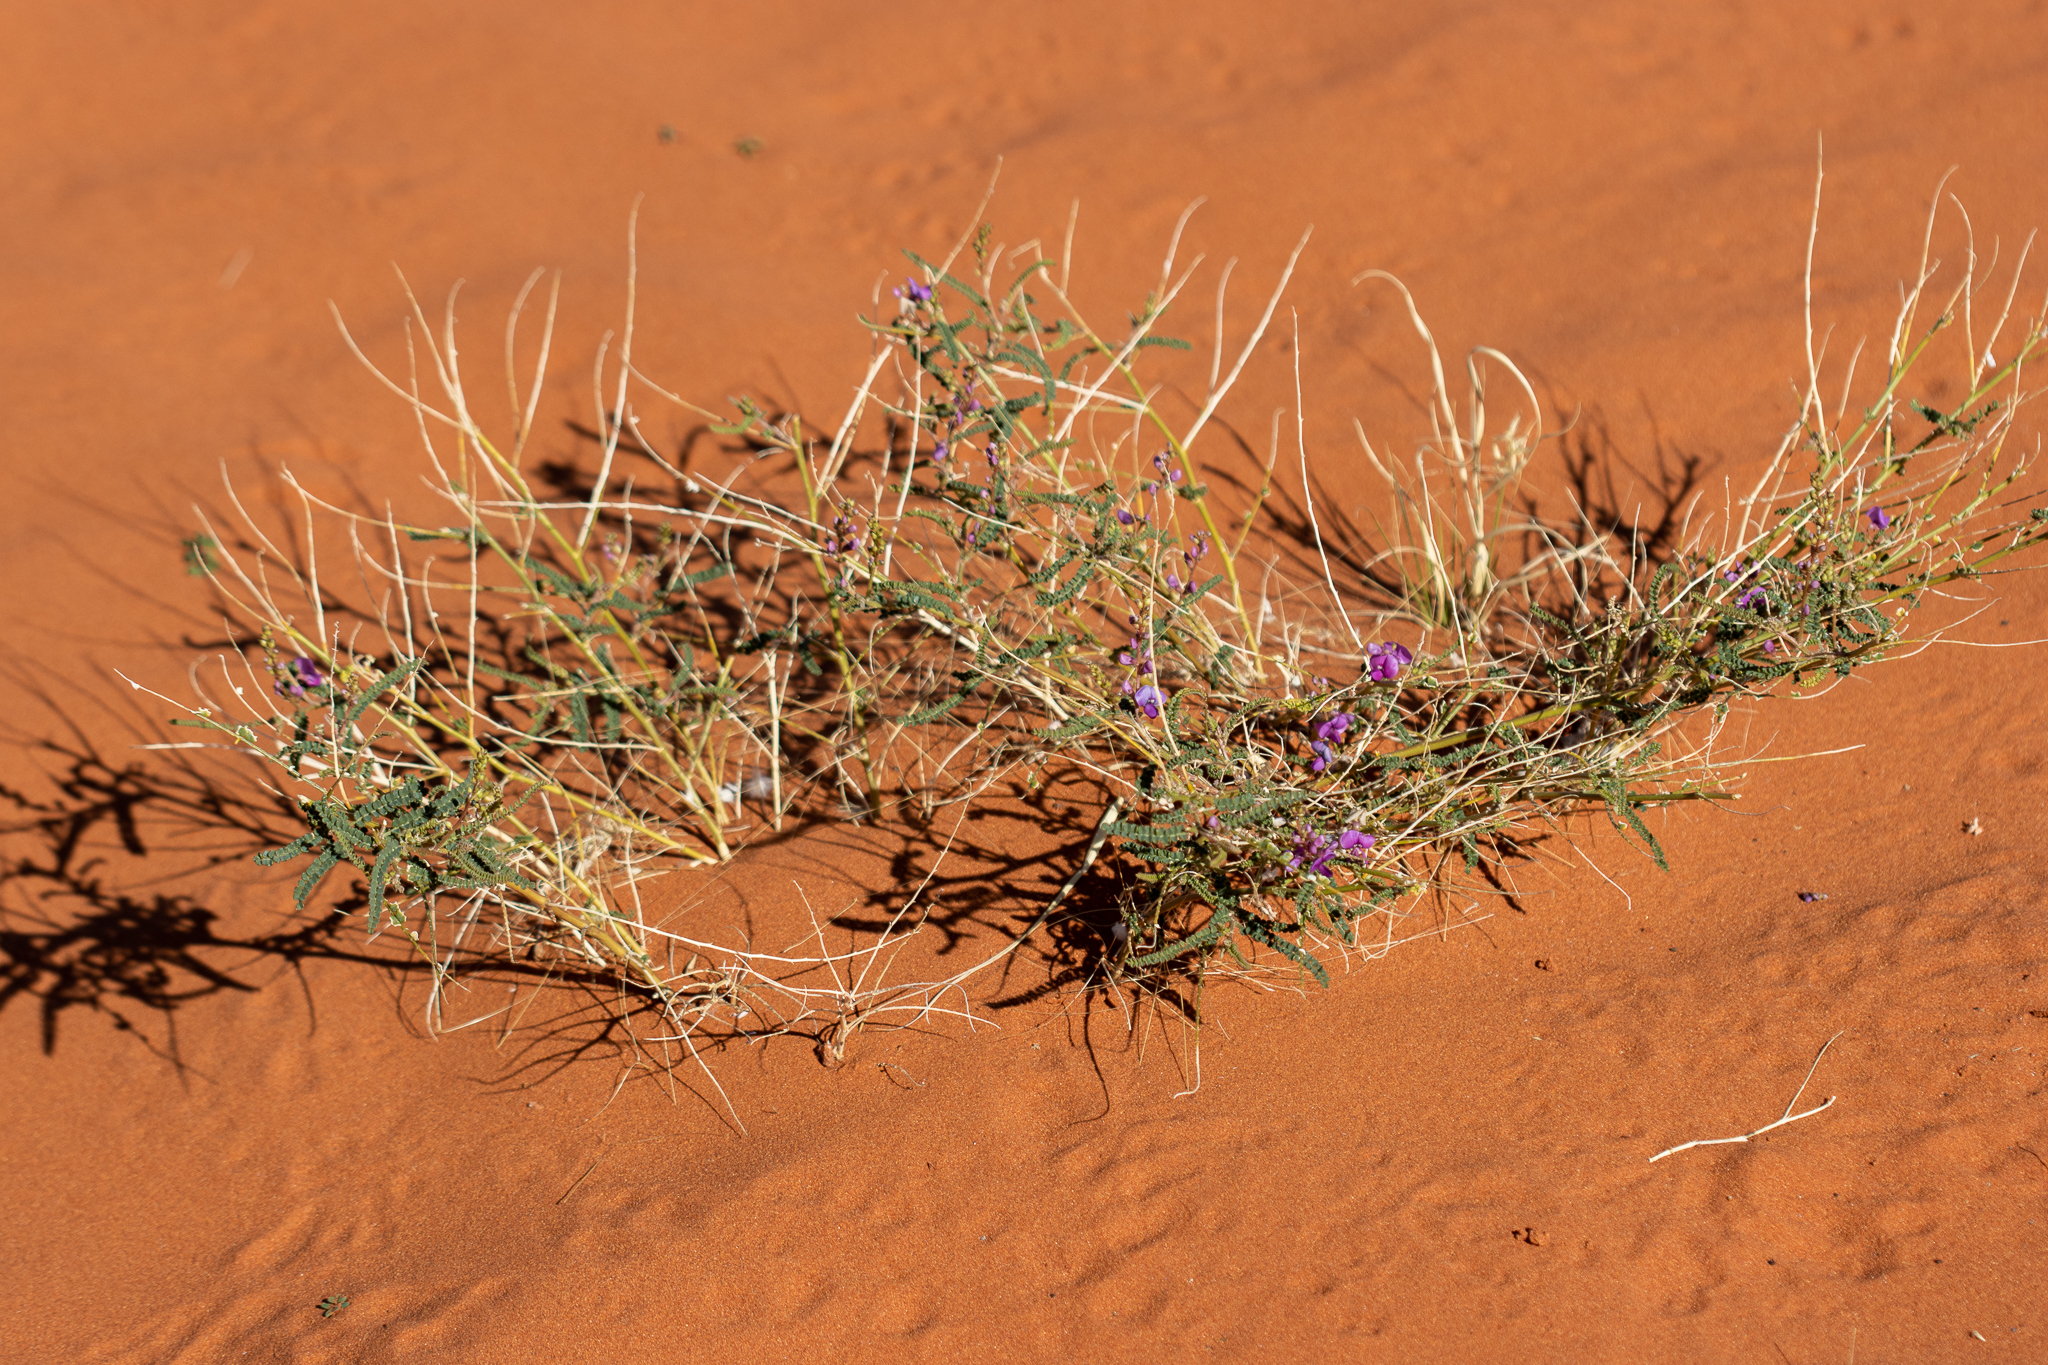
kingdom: Plantae
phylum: Tracheophyta
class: Magnoliopsida
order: Fabales
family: Fabaceae
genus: Swainsona
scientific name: Swainsona microphylla
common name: Small-leaf swainsona-pea
